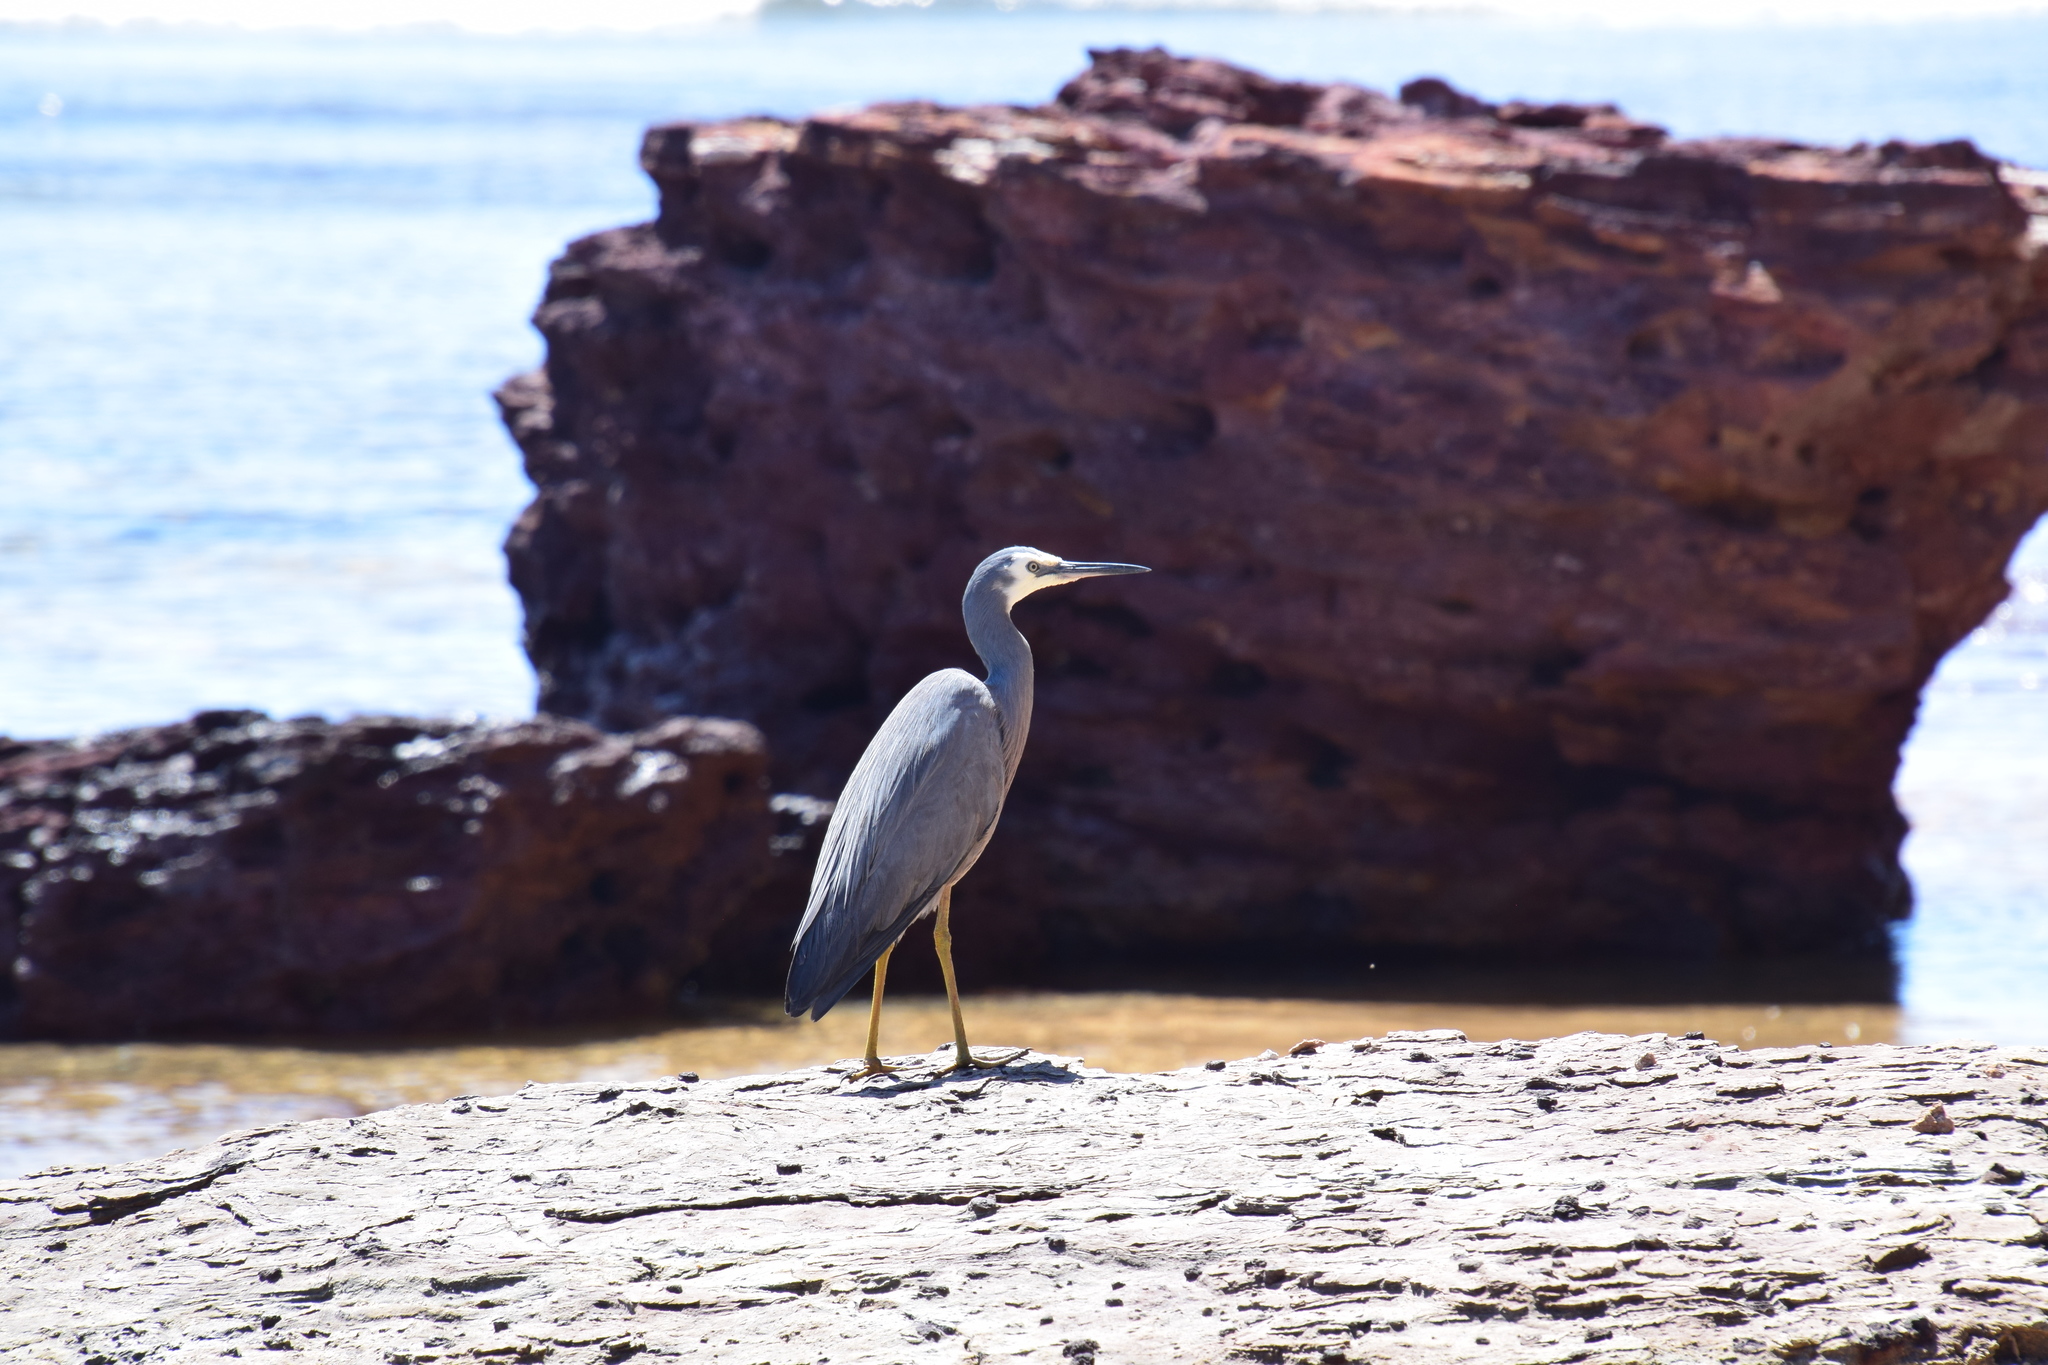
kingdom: Animalia
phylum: Chordata
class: Aves
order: Pelecaniformes
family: Ardeidae
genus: Egretta
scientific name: Egretta novaehollandiae
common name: White-faced heron
